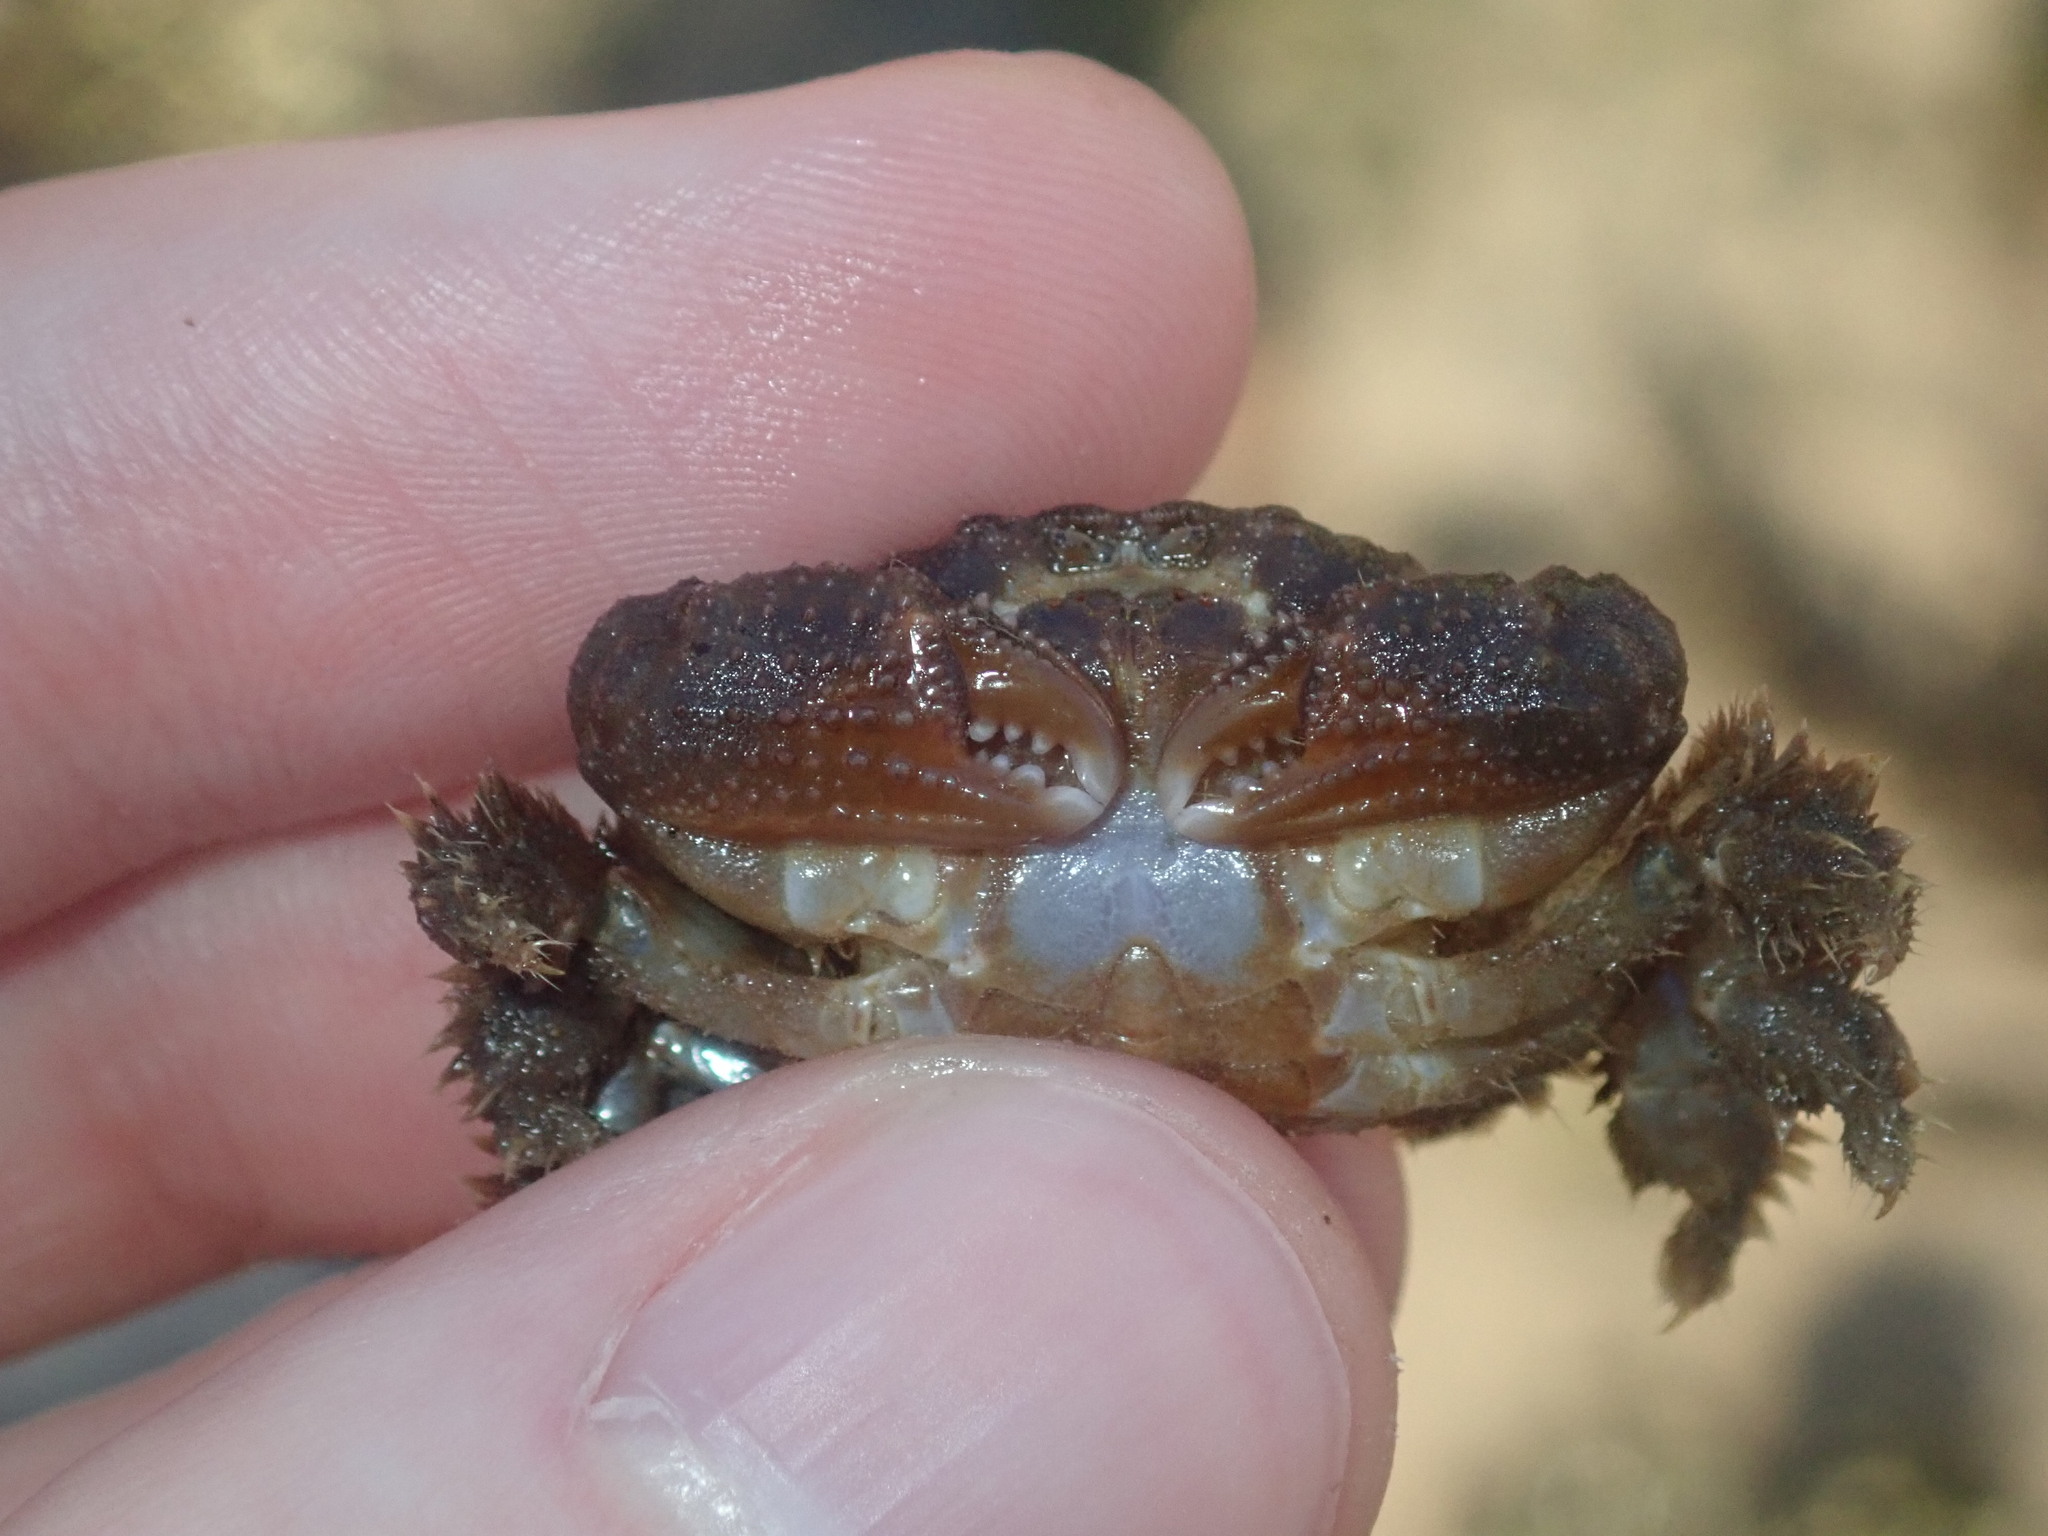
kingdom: Animalia
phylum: Arthropoda
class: Malacostraca
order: Decapoda
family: Xanthidae
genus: Pilodius
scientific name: Pilodius areolatus
